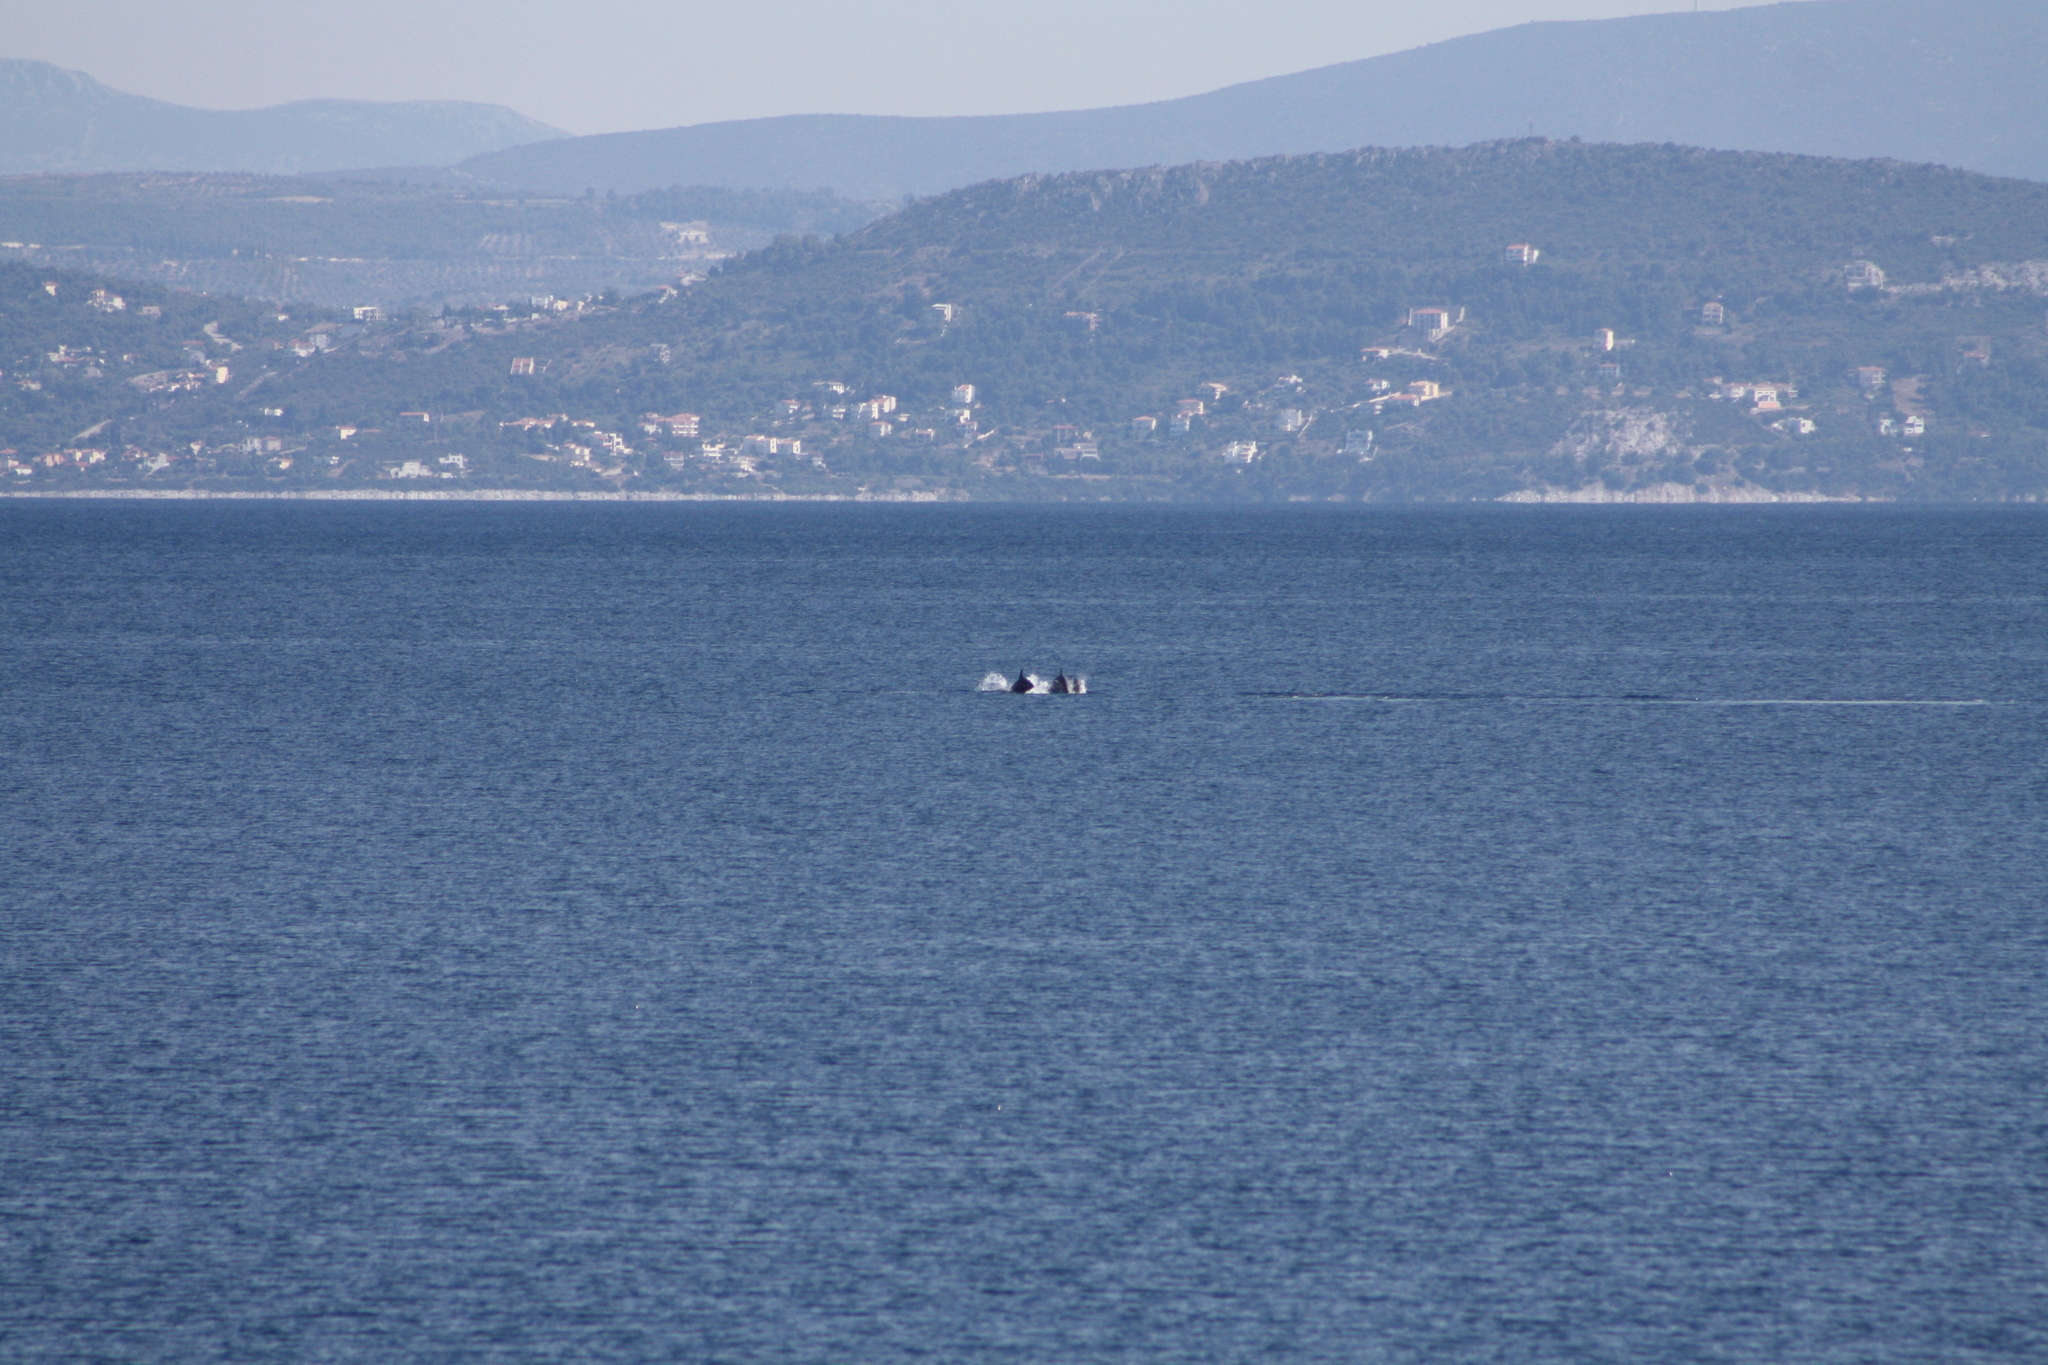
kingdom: Animalia
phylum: Chordata
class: Mammalia
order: Cetacea
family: Delphinidae
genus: Delphinus
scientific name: Delphinus delphis
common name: Common dolphin
